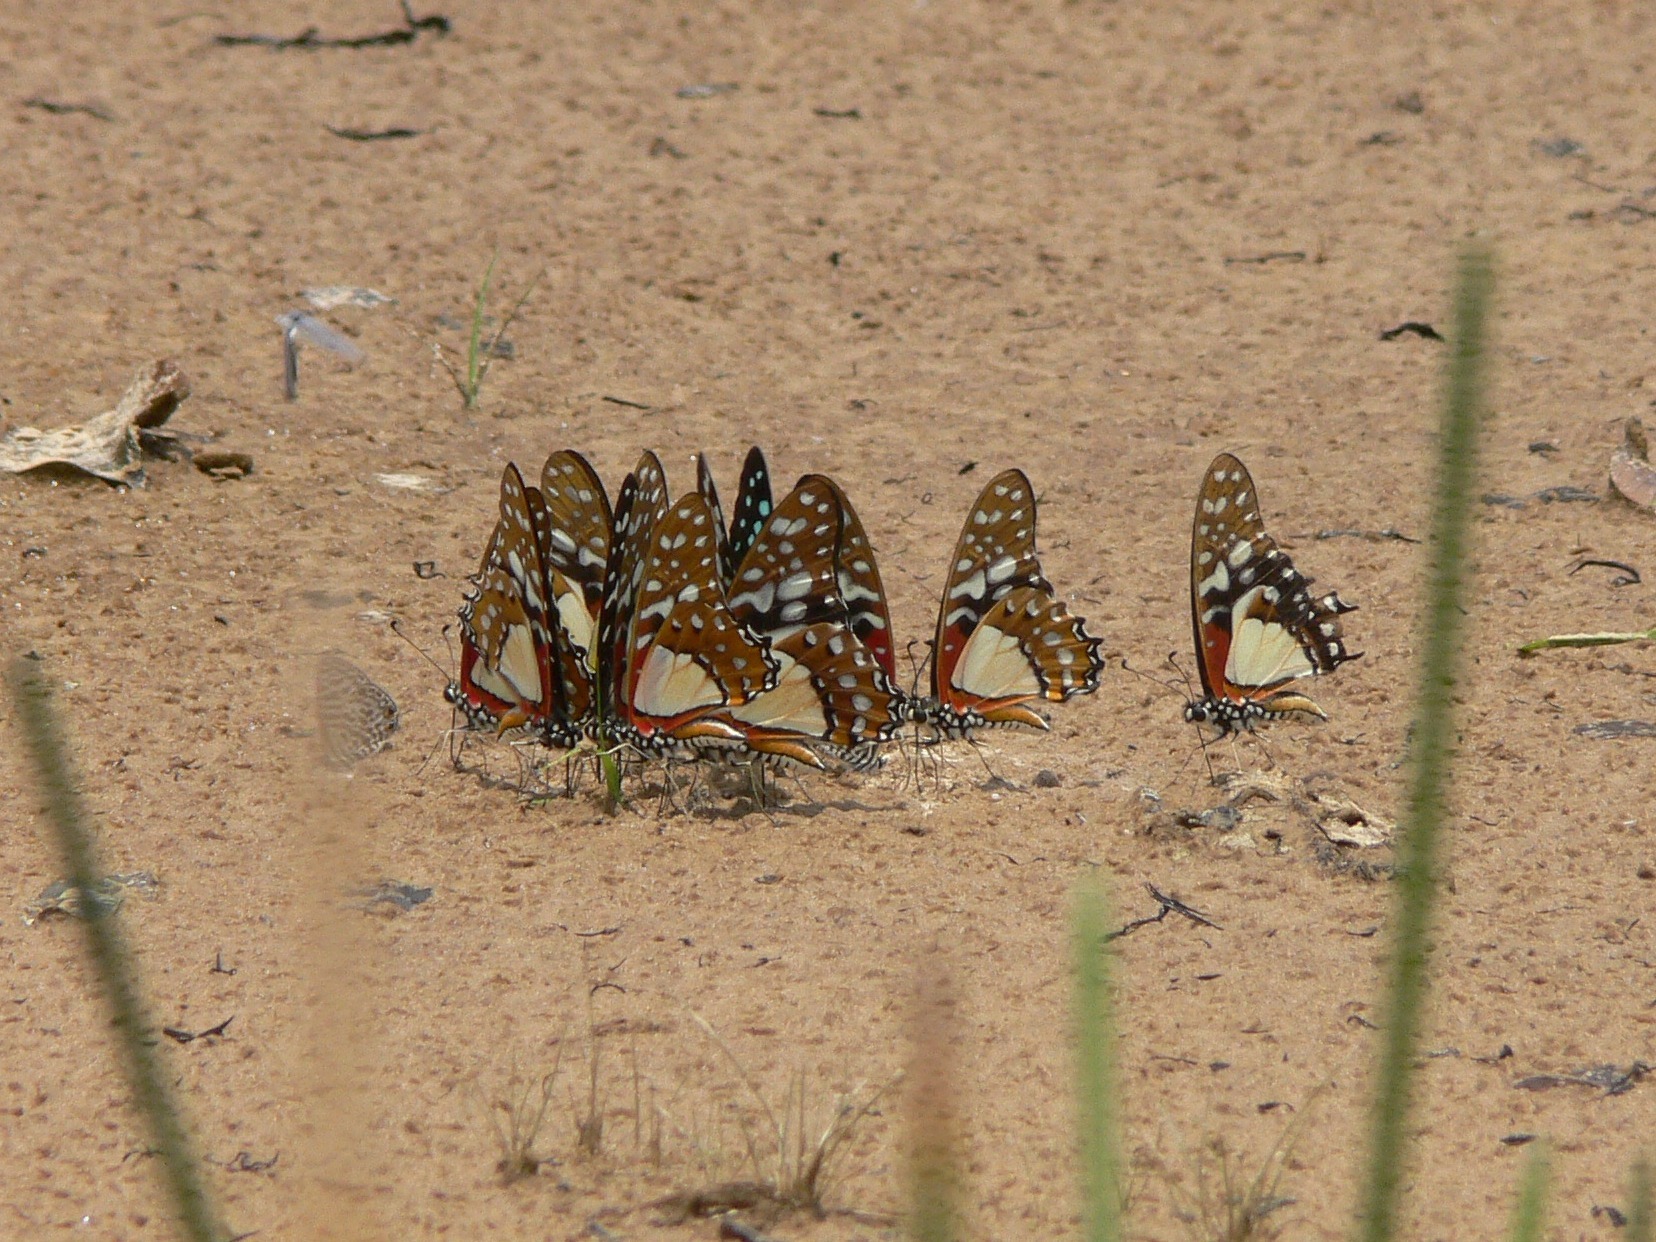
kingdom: Animalia
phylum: Arthropoda
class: Insecta
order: Lepidoptera
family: Papilionidae
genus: Graphium
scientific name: Graphium angolanus
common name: Angola white-lady swordtail
